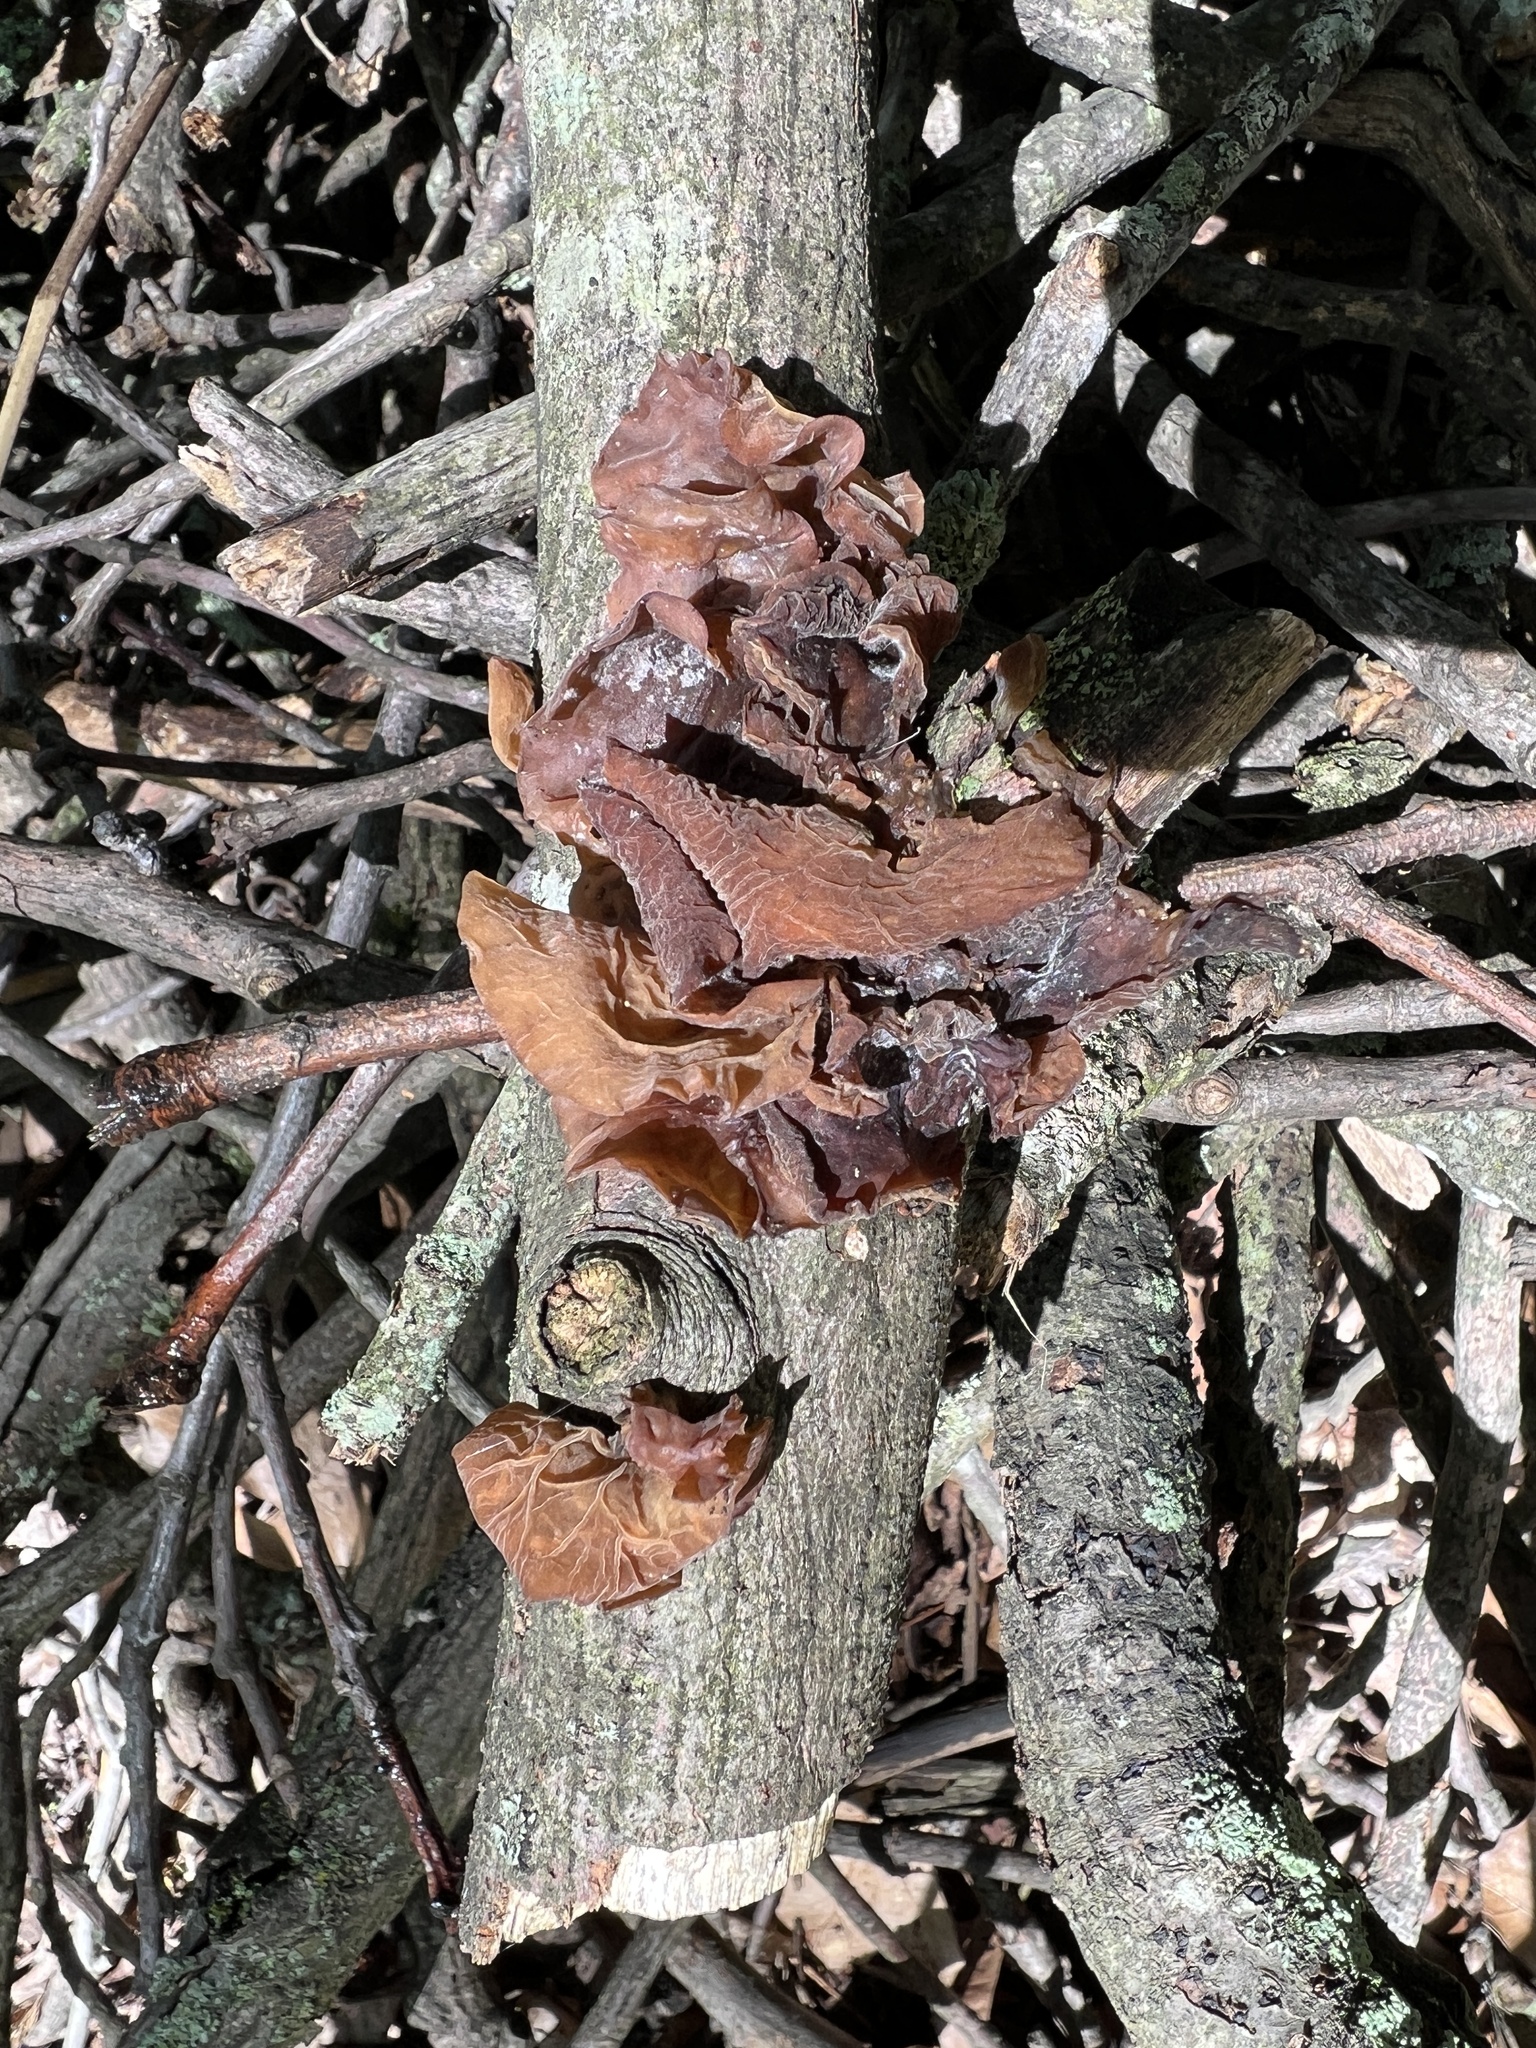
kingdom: Fungi
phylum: Basidiomycota
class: Agaricomycetes
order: Auriculariales
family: Auriculariaceae
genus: Auricularia
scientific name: Auricularia fuscosuccinea
